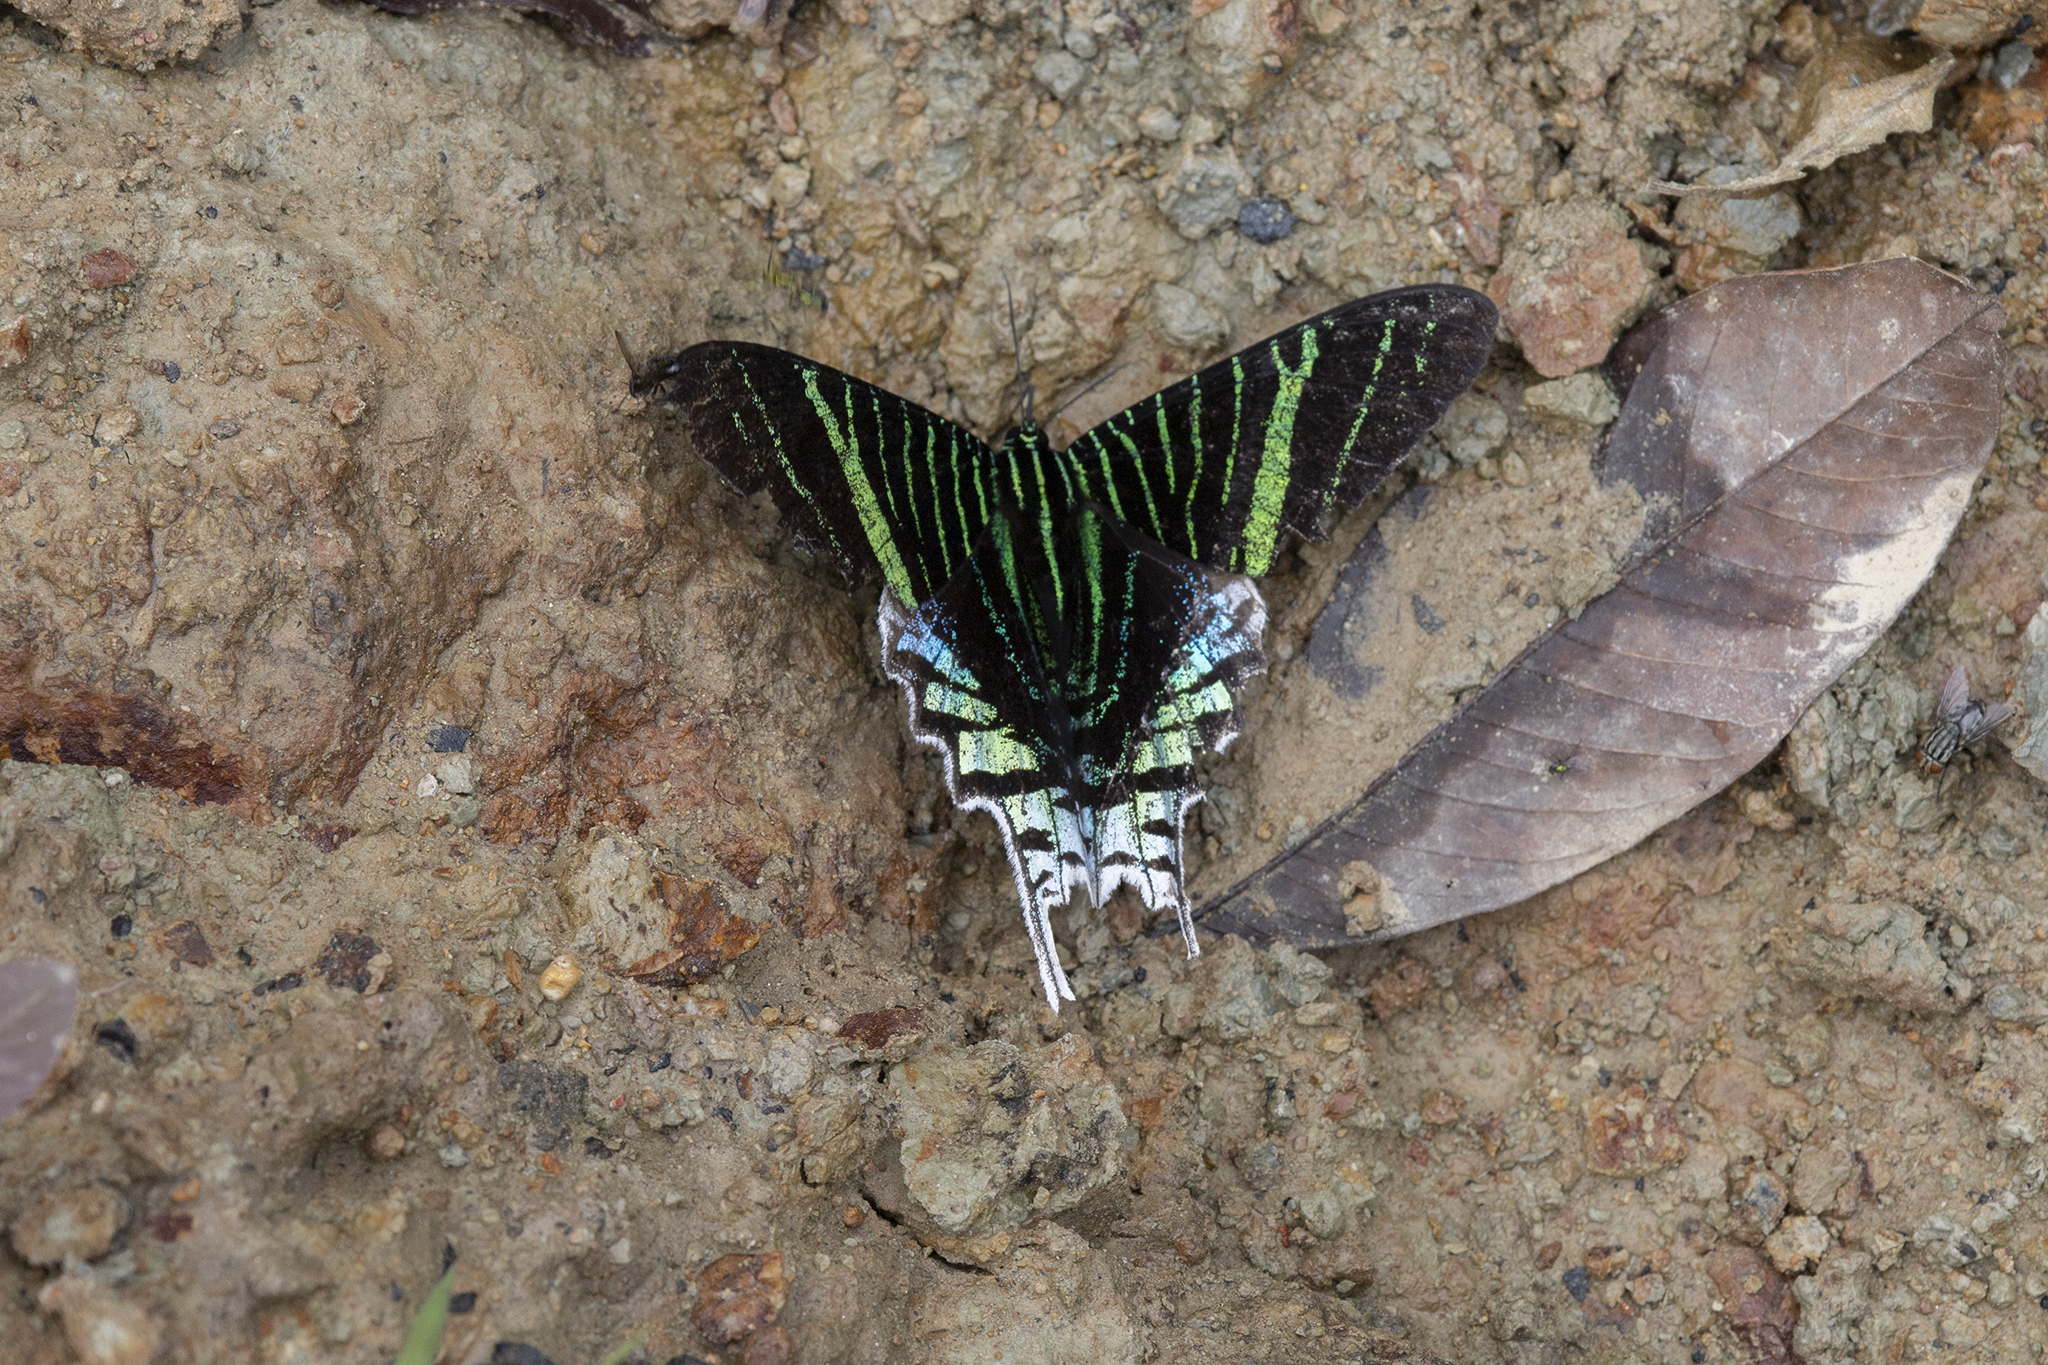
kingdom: Animalia
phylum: Arthropoda
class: Insecta
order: Lepidoptera
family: Uraniidae
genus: Urania
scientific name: Urania leilus
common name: Peacock moth
